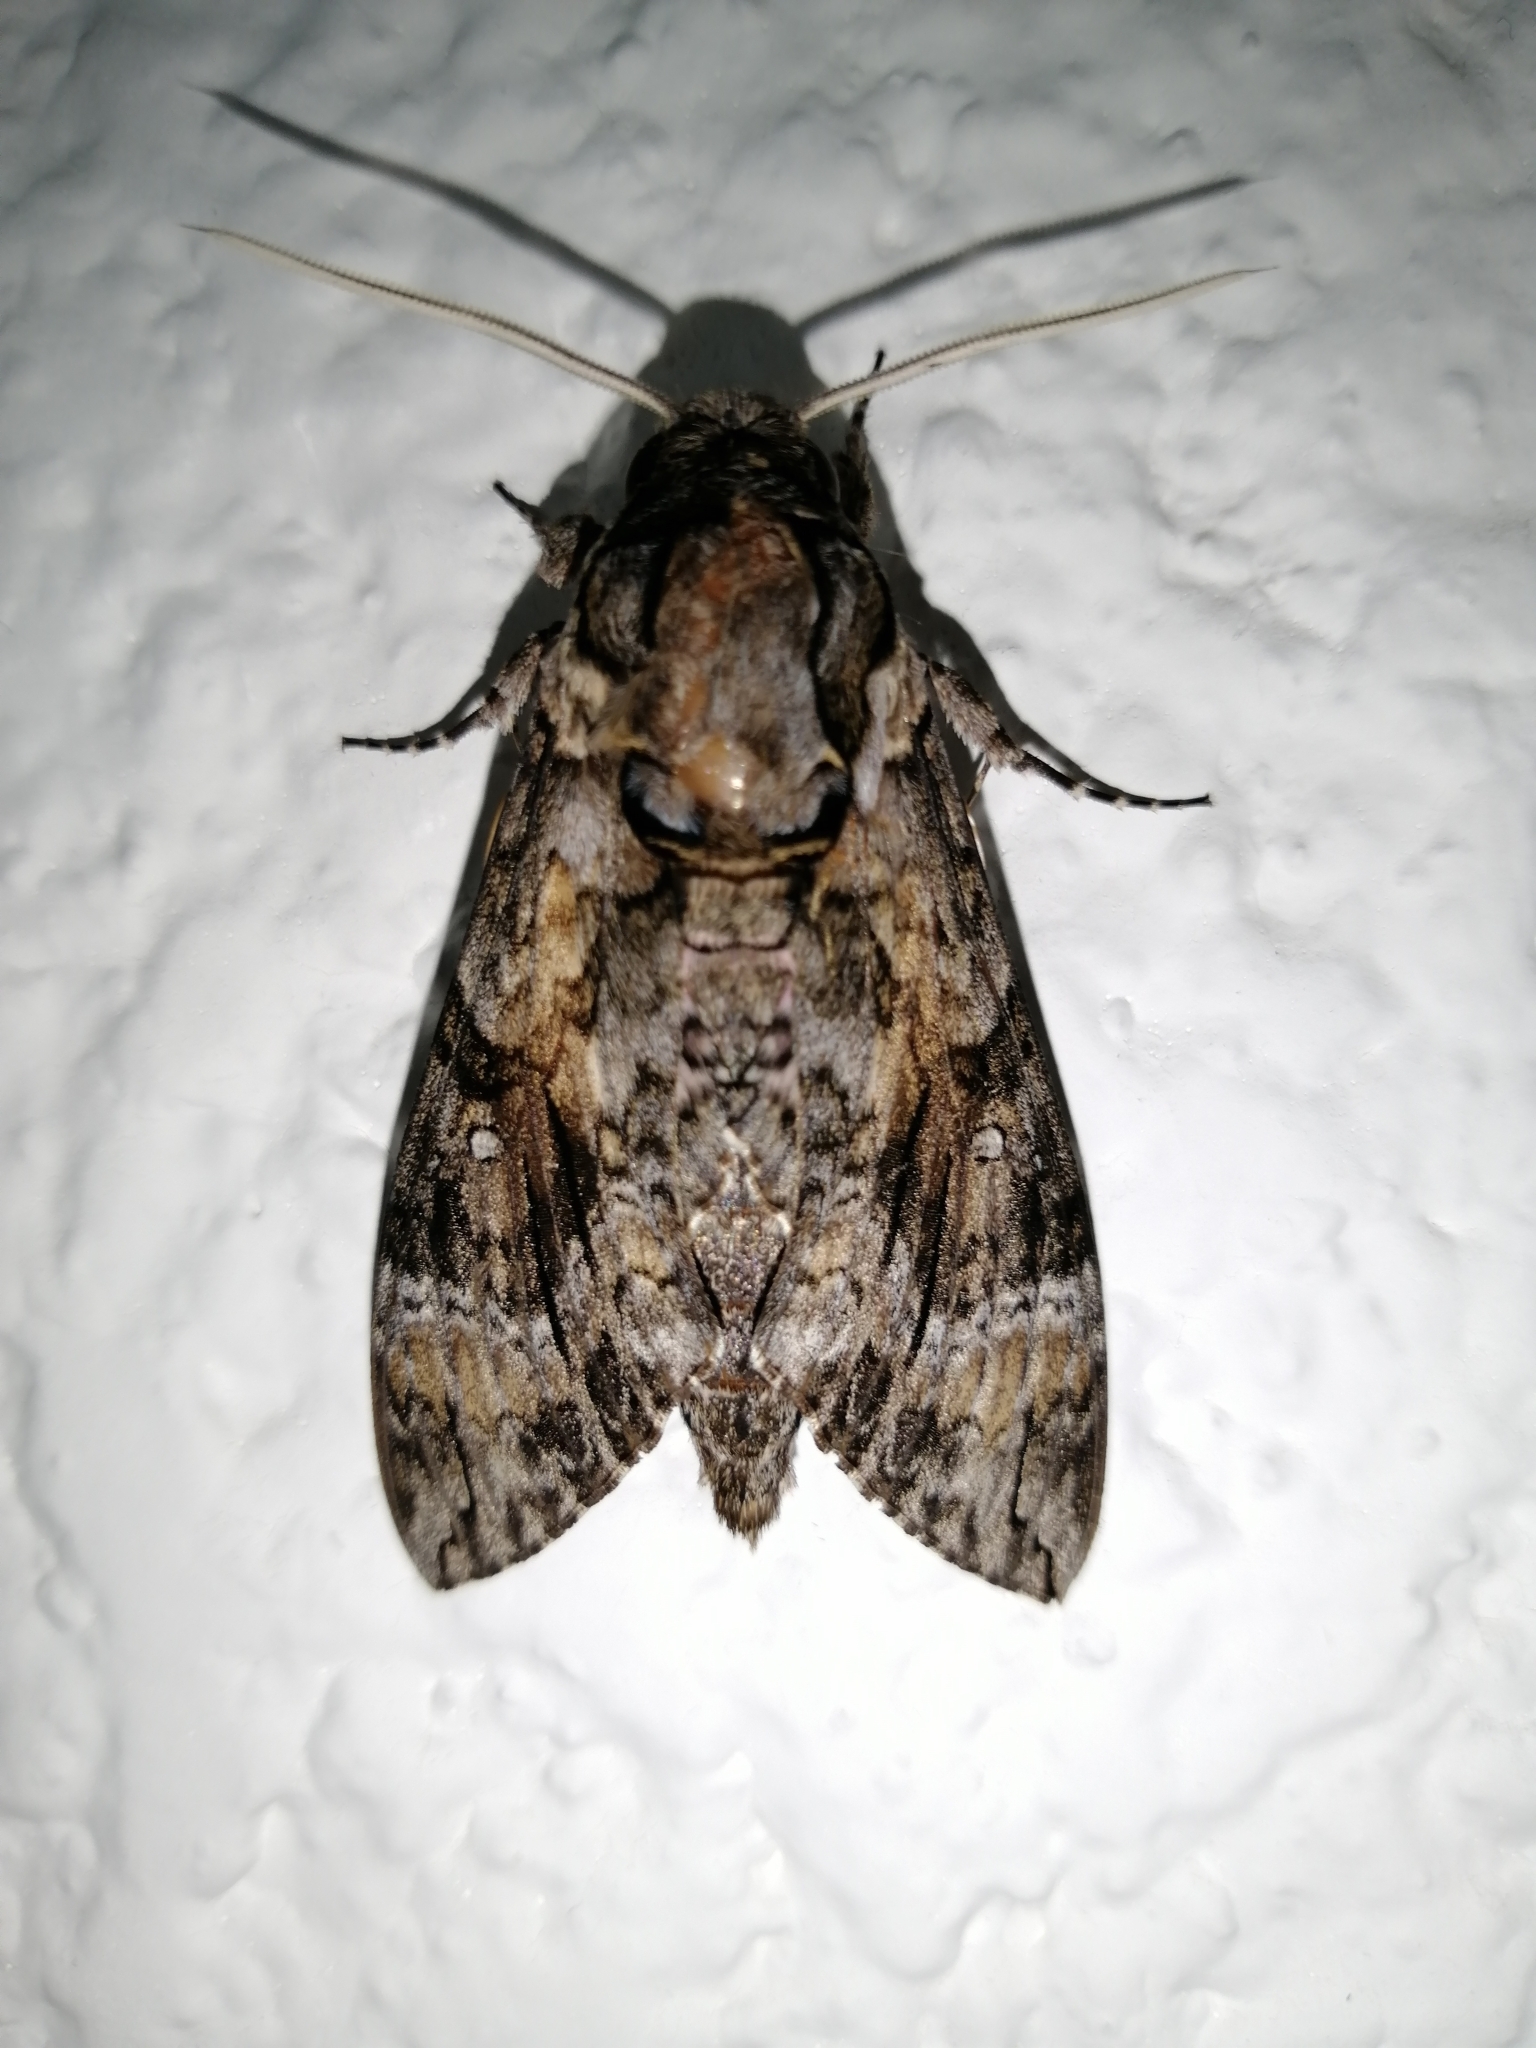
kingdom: Animalia
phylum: Arthropoda
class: Insecta
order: Lepidoptera
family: Sphingidae
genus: Agrius
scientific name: Agrius cingulata
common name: Pink-spotted hawkmoth
